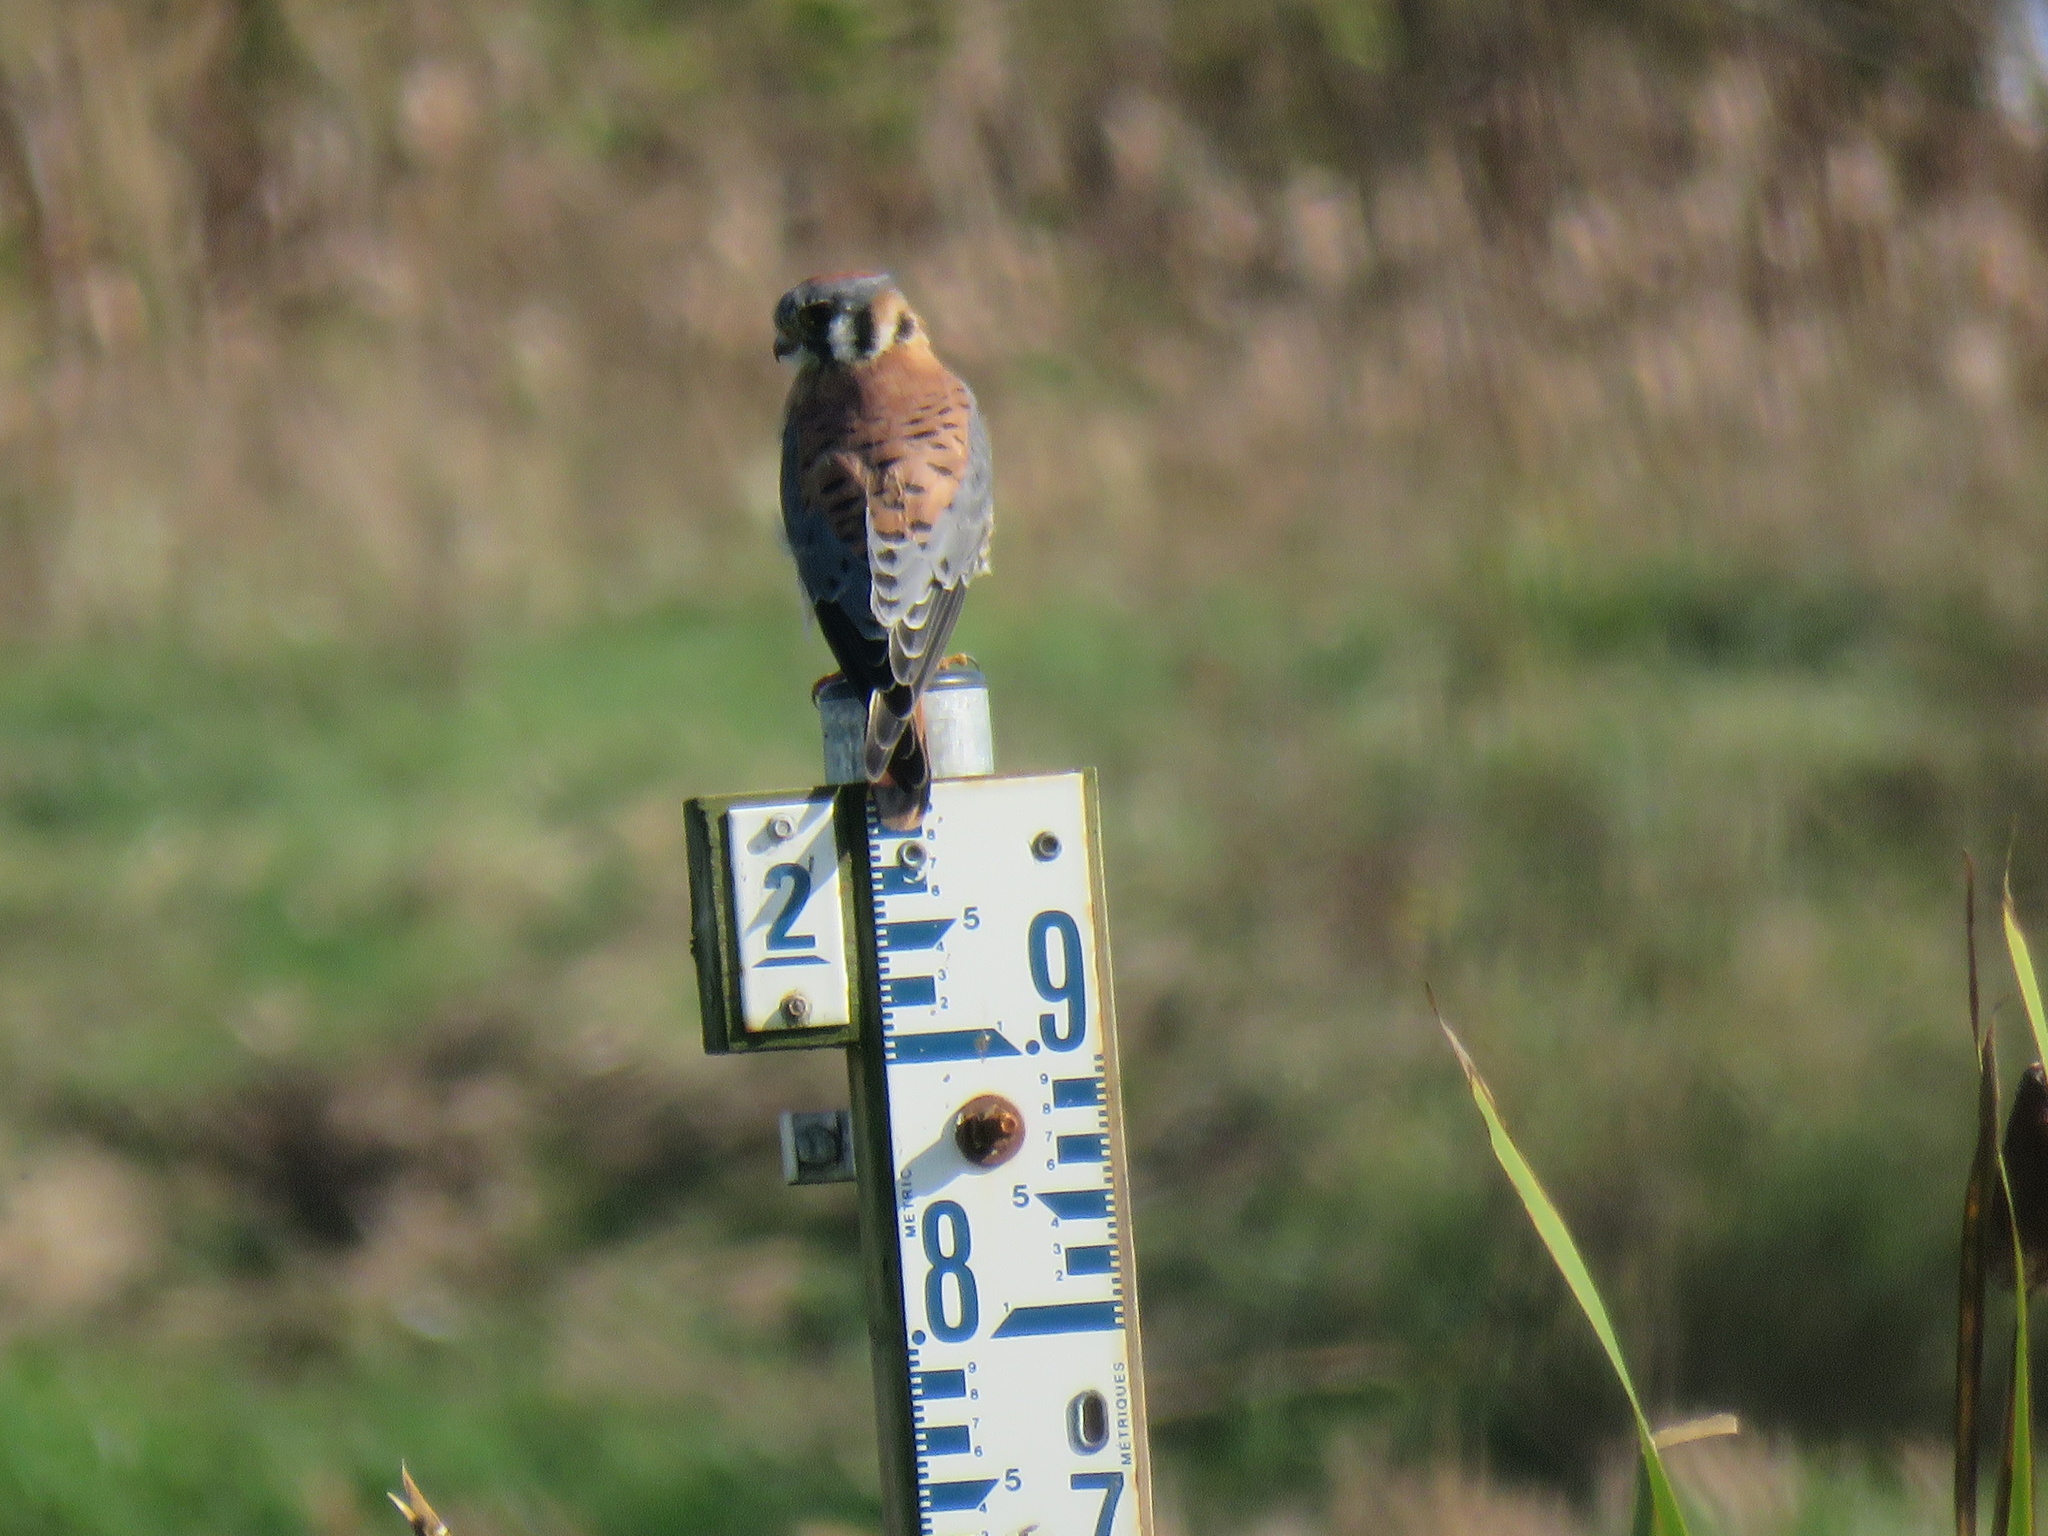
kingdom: Animalia
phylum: Chordata
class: Aves
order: Falconiformes
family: Falconidae
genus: Falco
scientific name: Falco sparverius
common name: American kestrel
